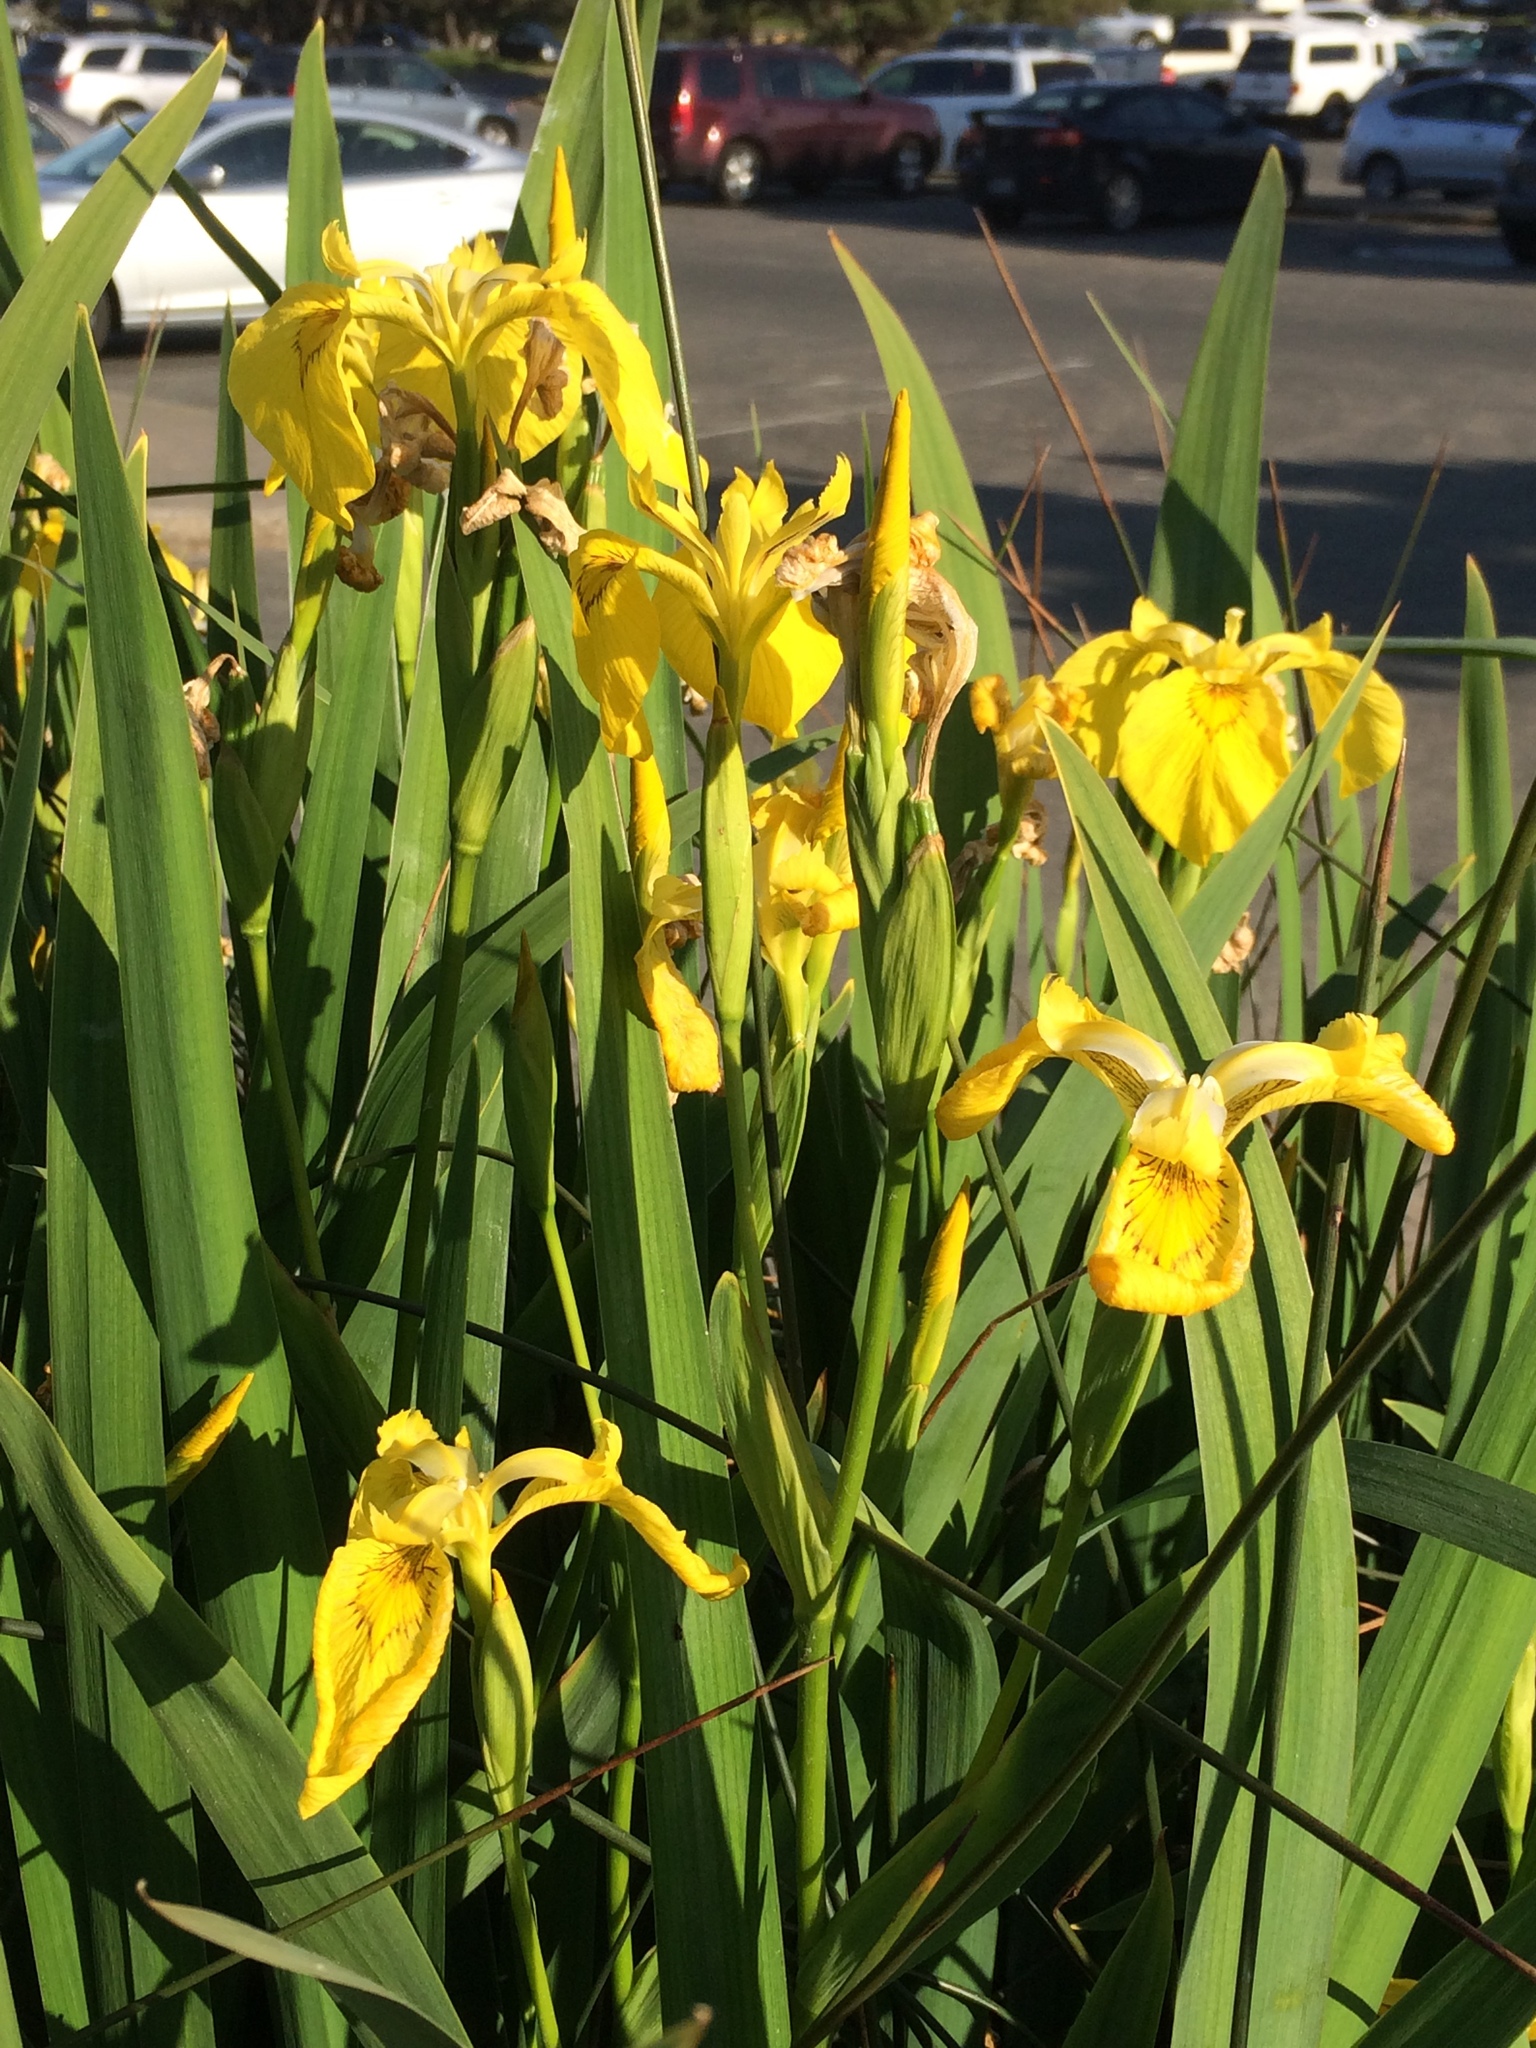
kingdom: Plantae
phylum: Tracheophyta
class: Liliopsida
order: Asparagales
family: Iridaceae
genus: Iris
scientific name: Iris pseudacorus
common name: Yellow flag
